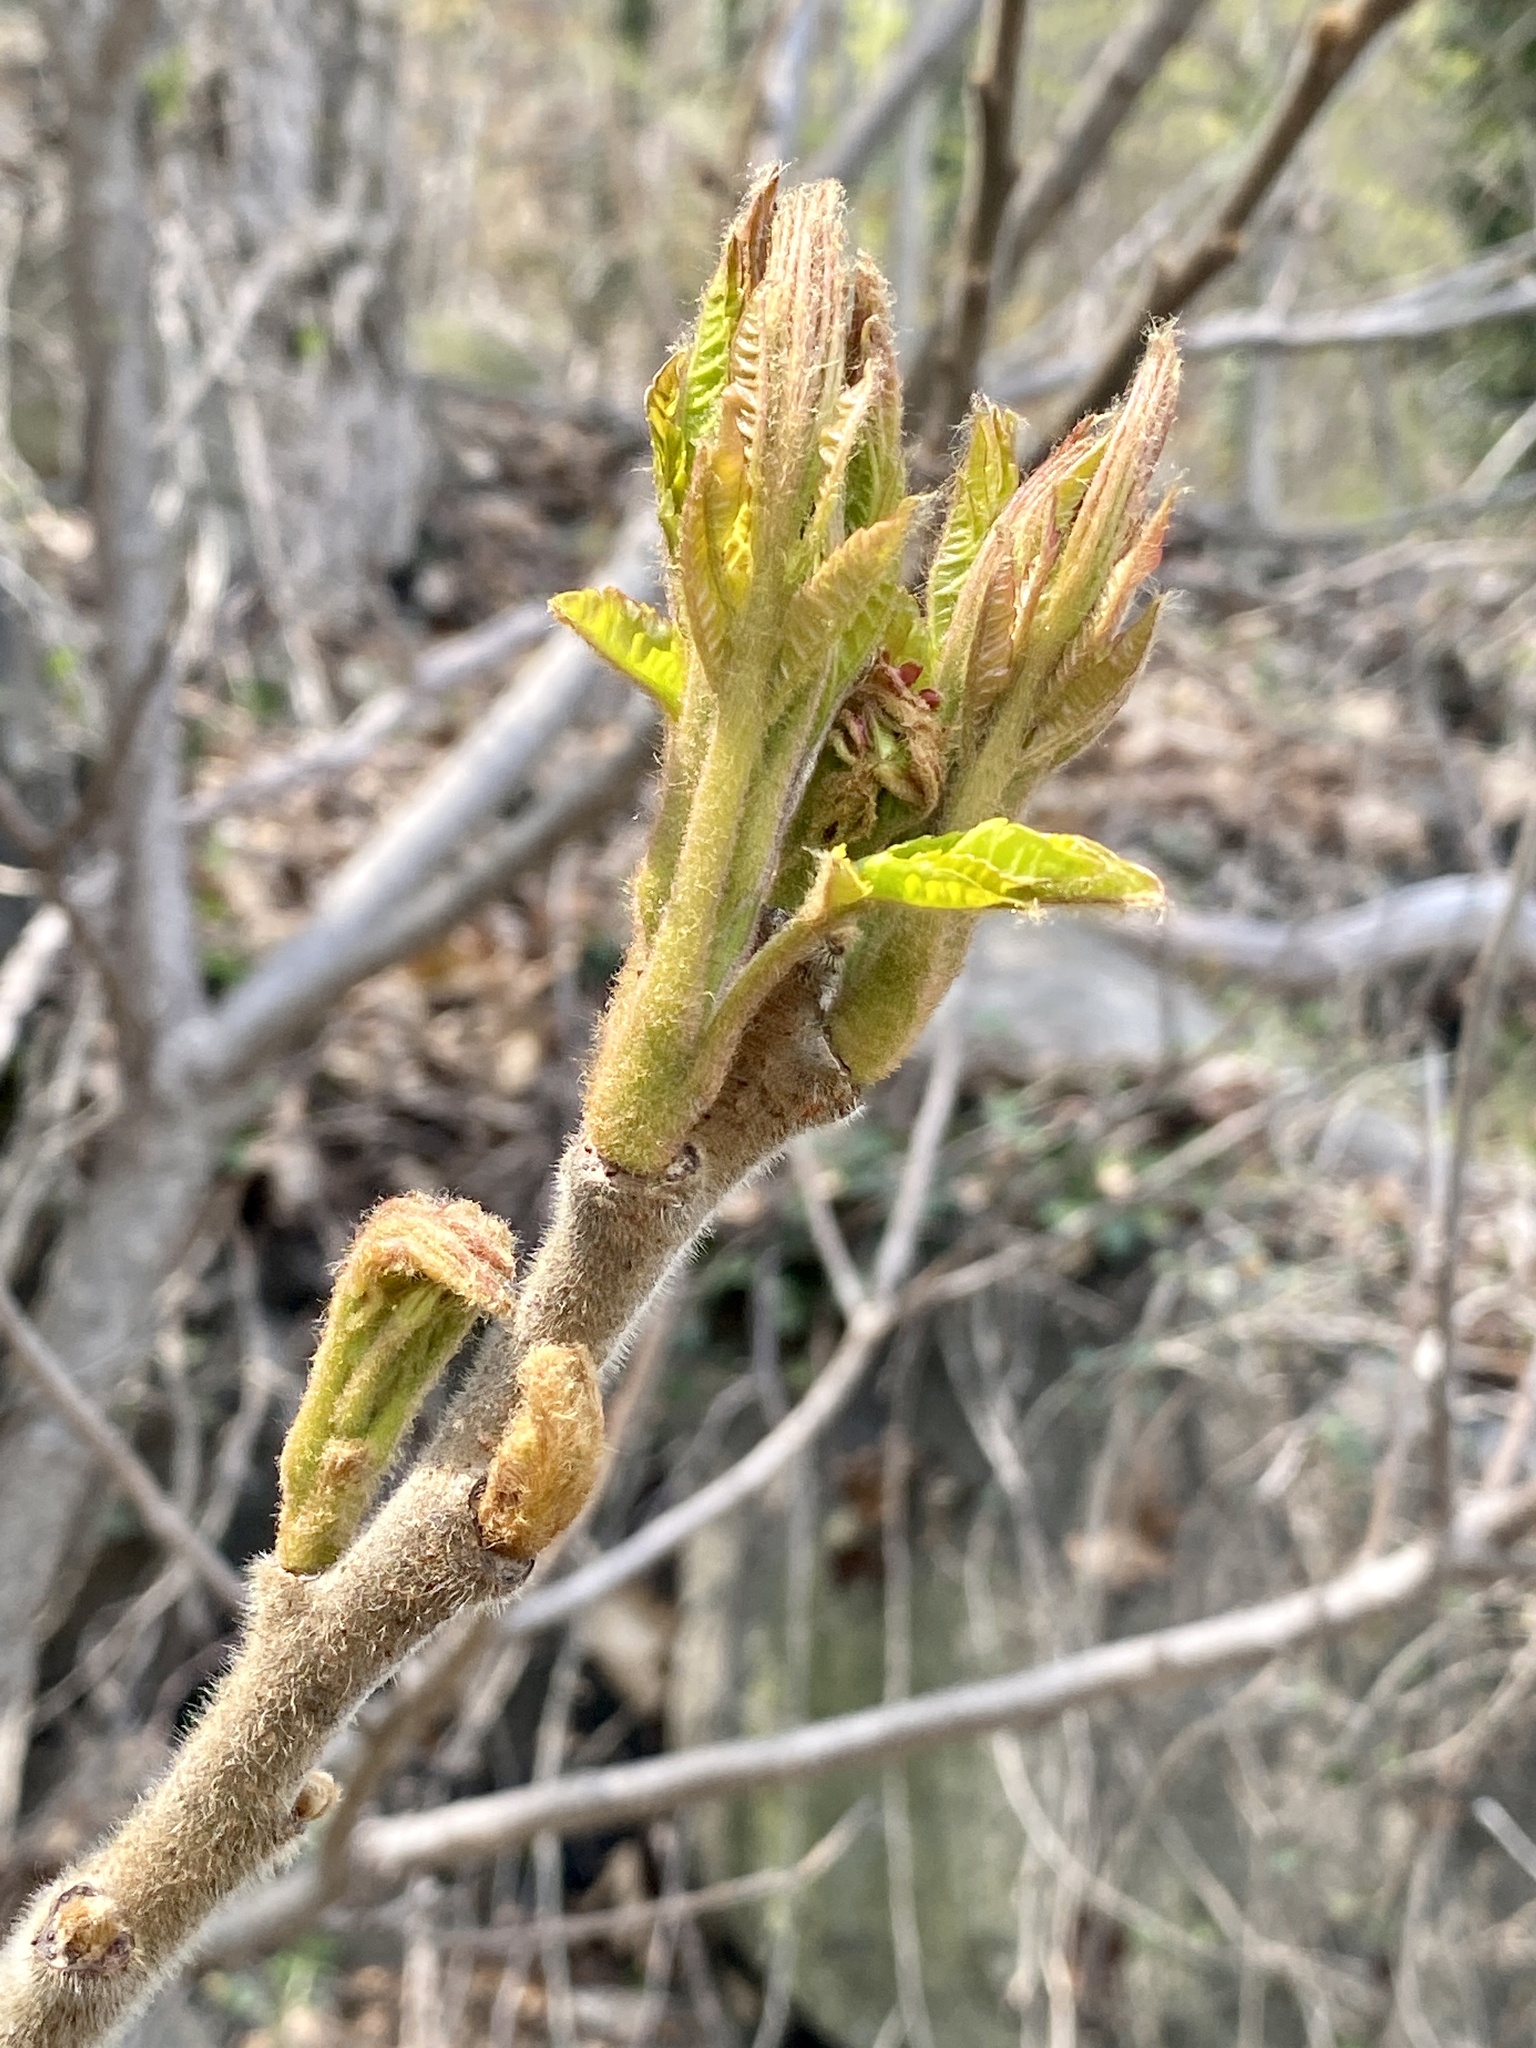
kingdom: Plantae
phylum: Tracheophyta
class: Magnoliopsida
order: Sapindales
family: Anacardiaceae
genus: Rhus
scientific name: Rhus typhina
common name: Staghorn sumac
